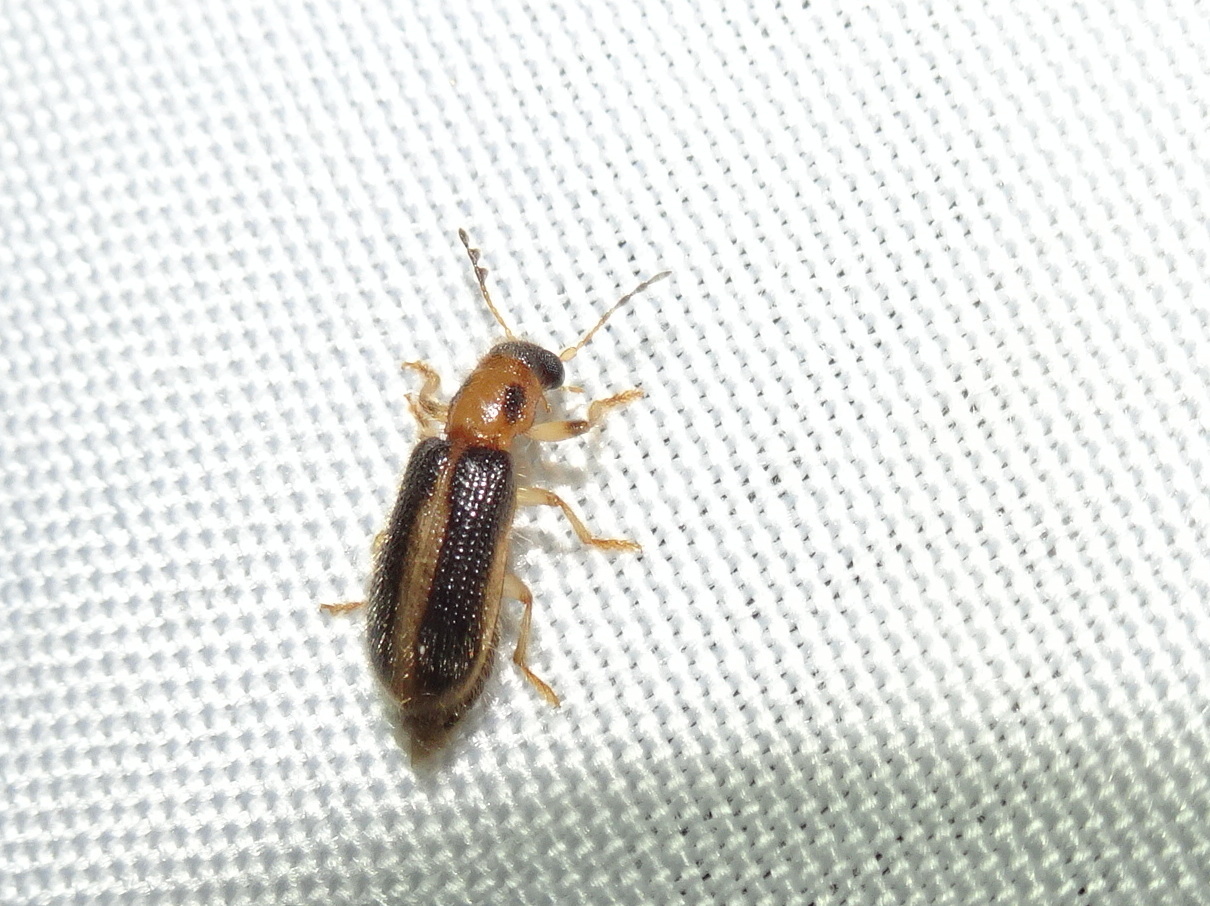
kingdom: Animalia
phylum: Arthropoda
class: Insecta
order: Coleoptera
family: Cleridae
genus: Cregya
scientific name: Cregya oculata
